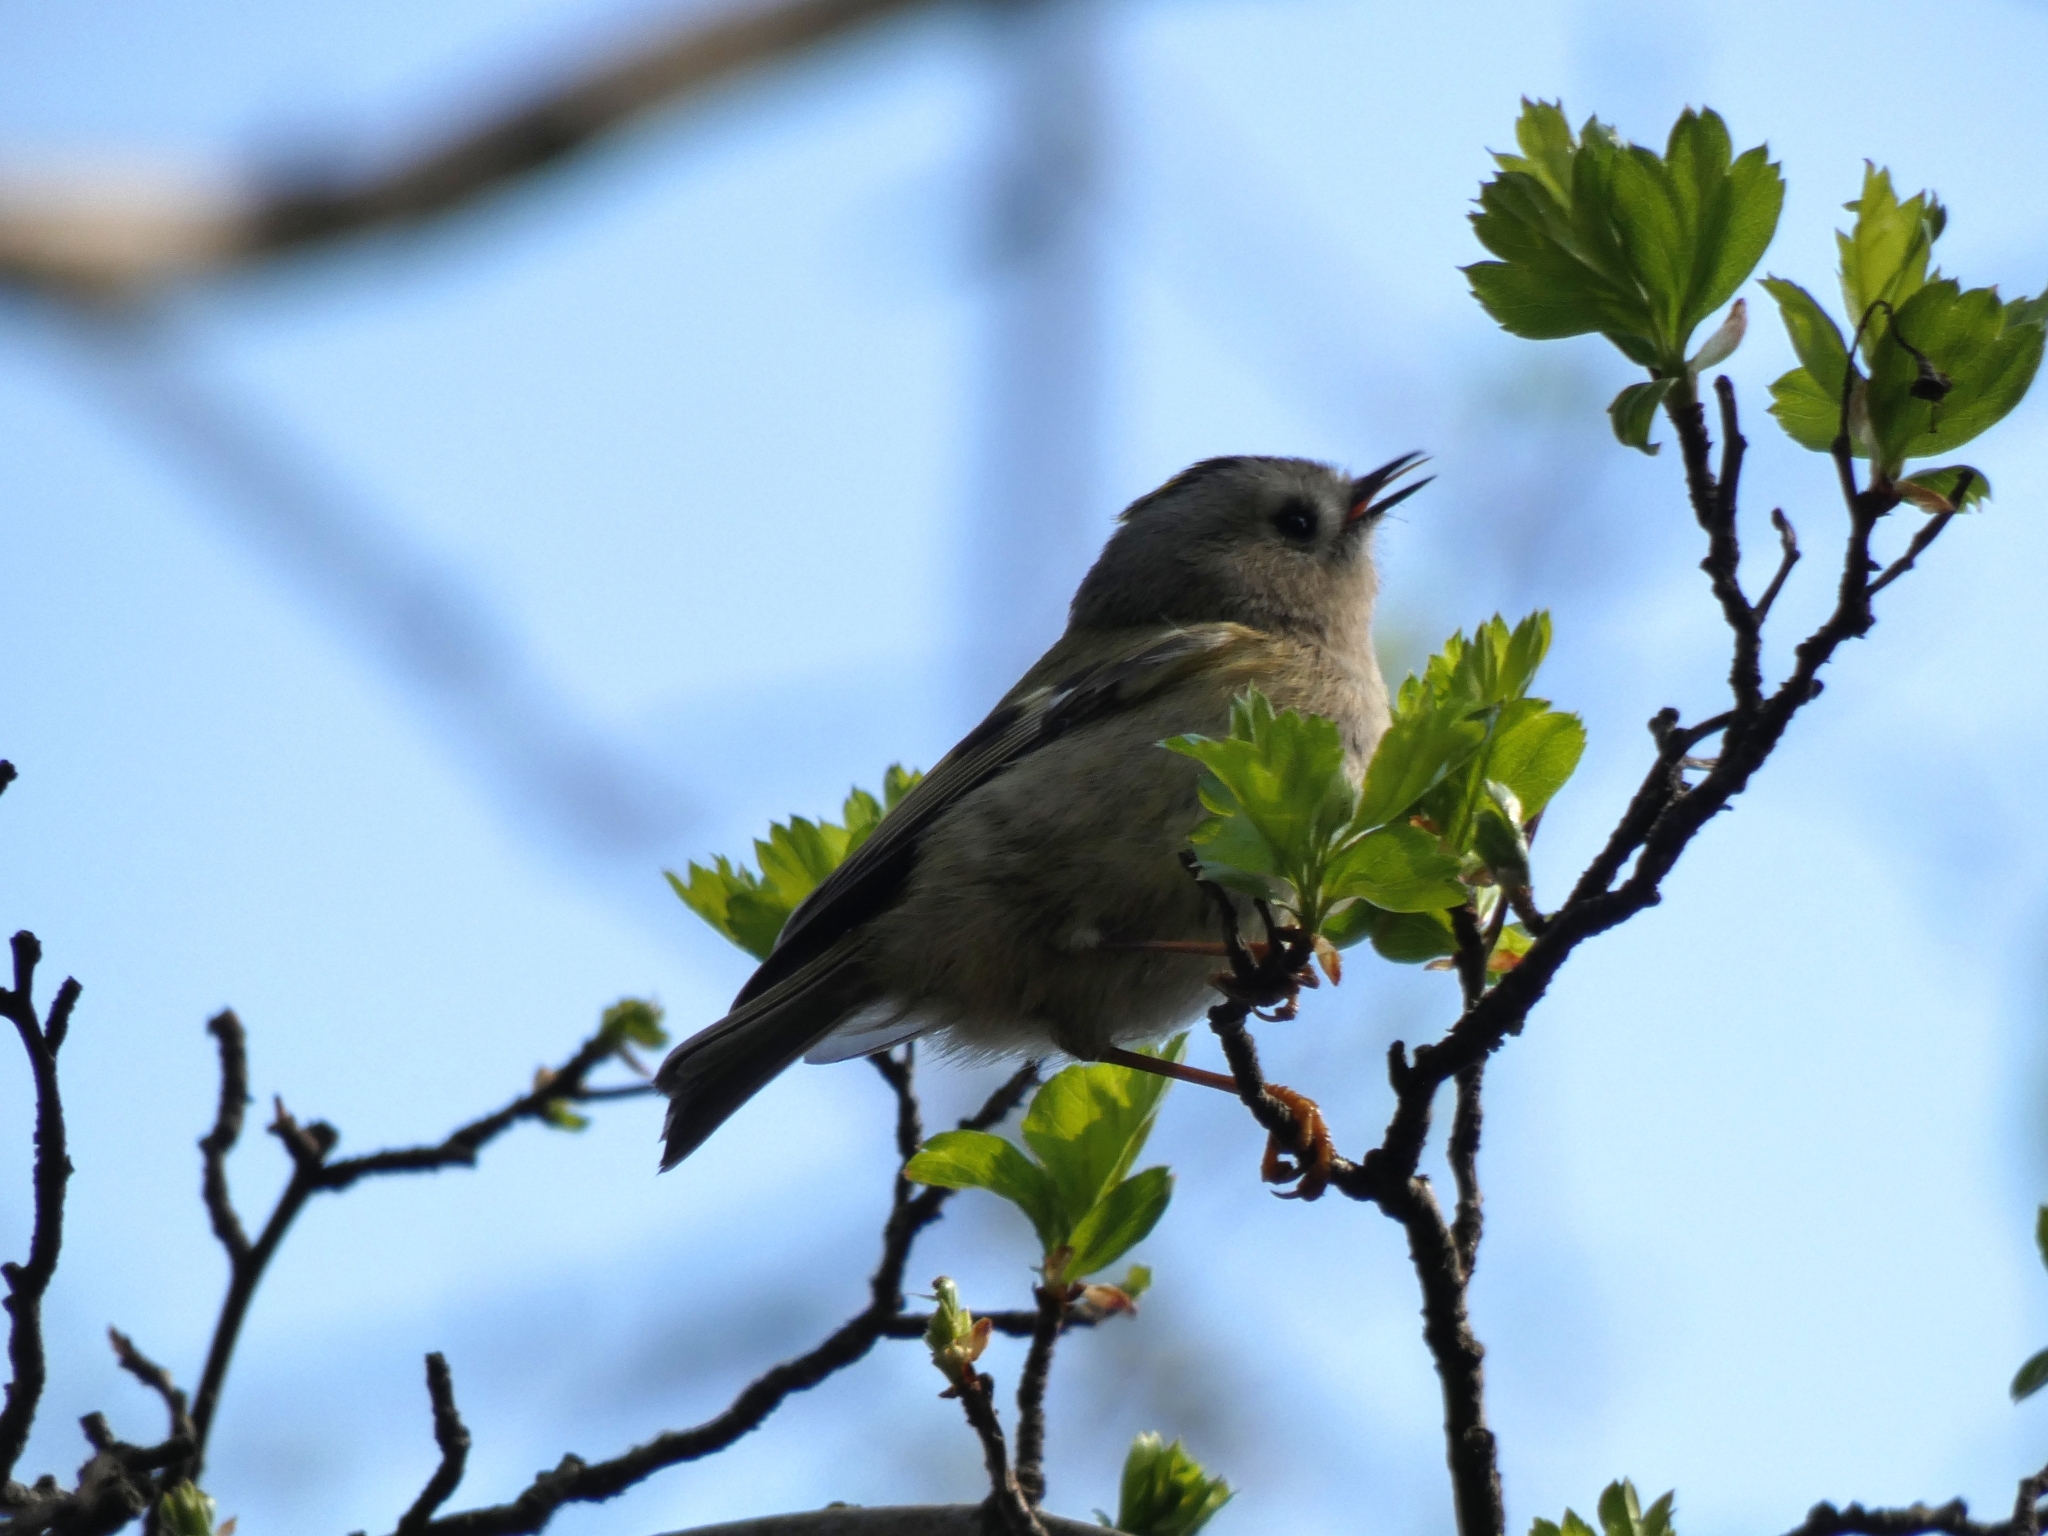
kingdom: Animalia
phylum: Chordata
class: Aves
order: Passeriformes
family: Regulidae
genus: Regulus
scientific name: Regulus regulus
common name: Goldcrest
